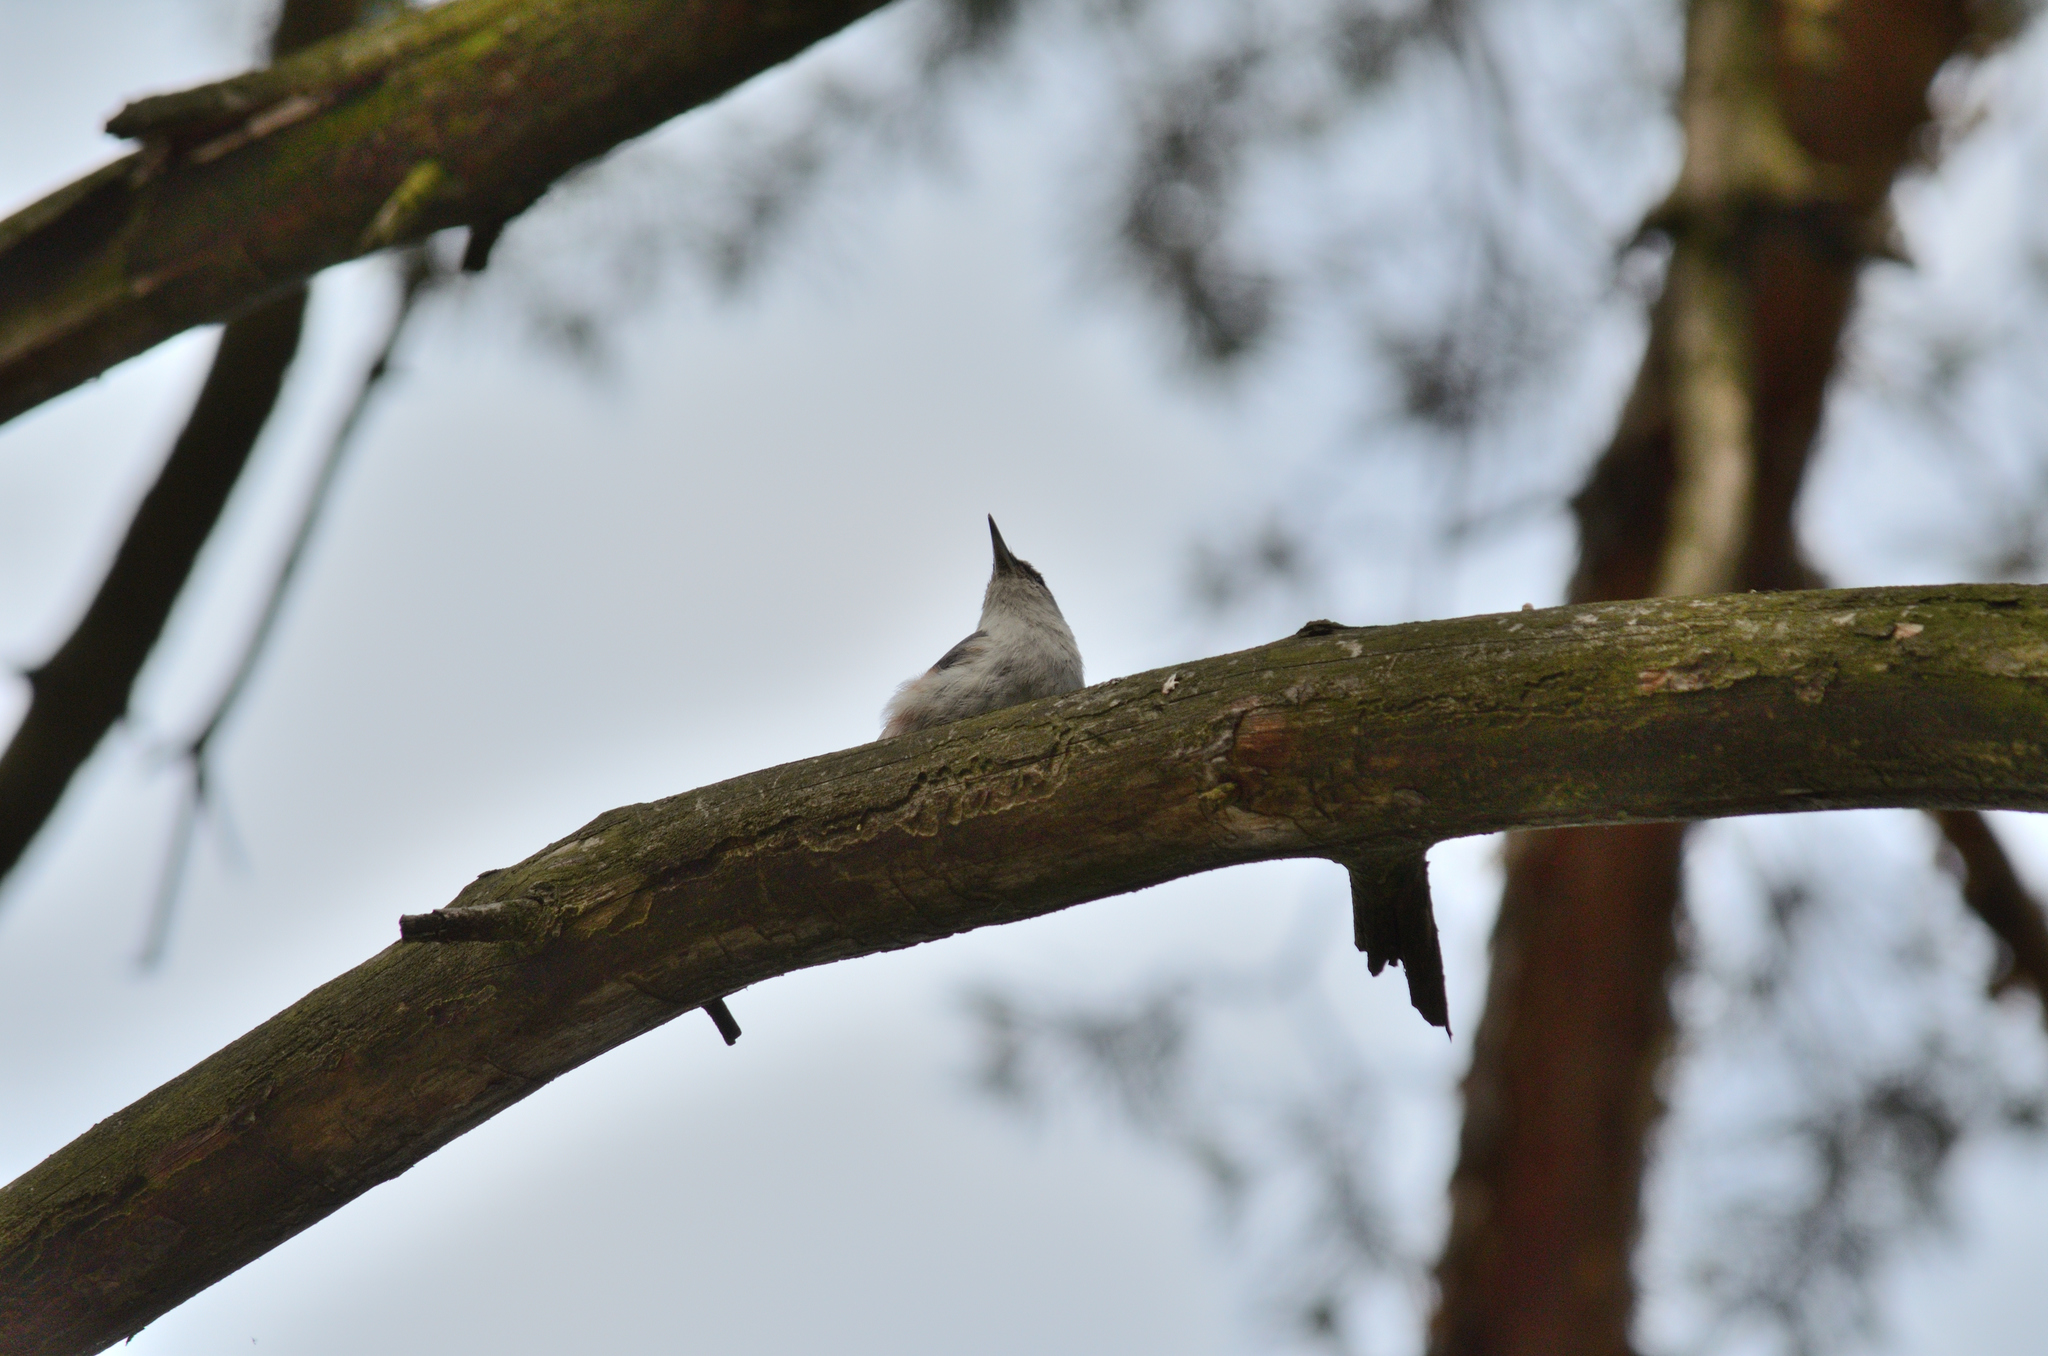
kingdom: Animalia
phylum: Chordata
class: Aves
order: Passeriformes
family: Sittidae
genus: Sitta
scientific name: Sitta europaea
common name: Eurasian nuthatch
